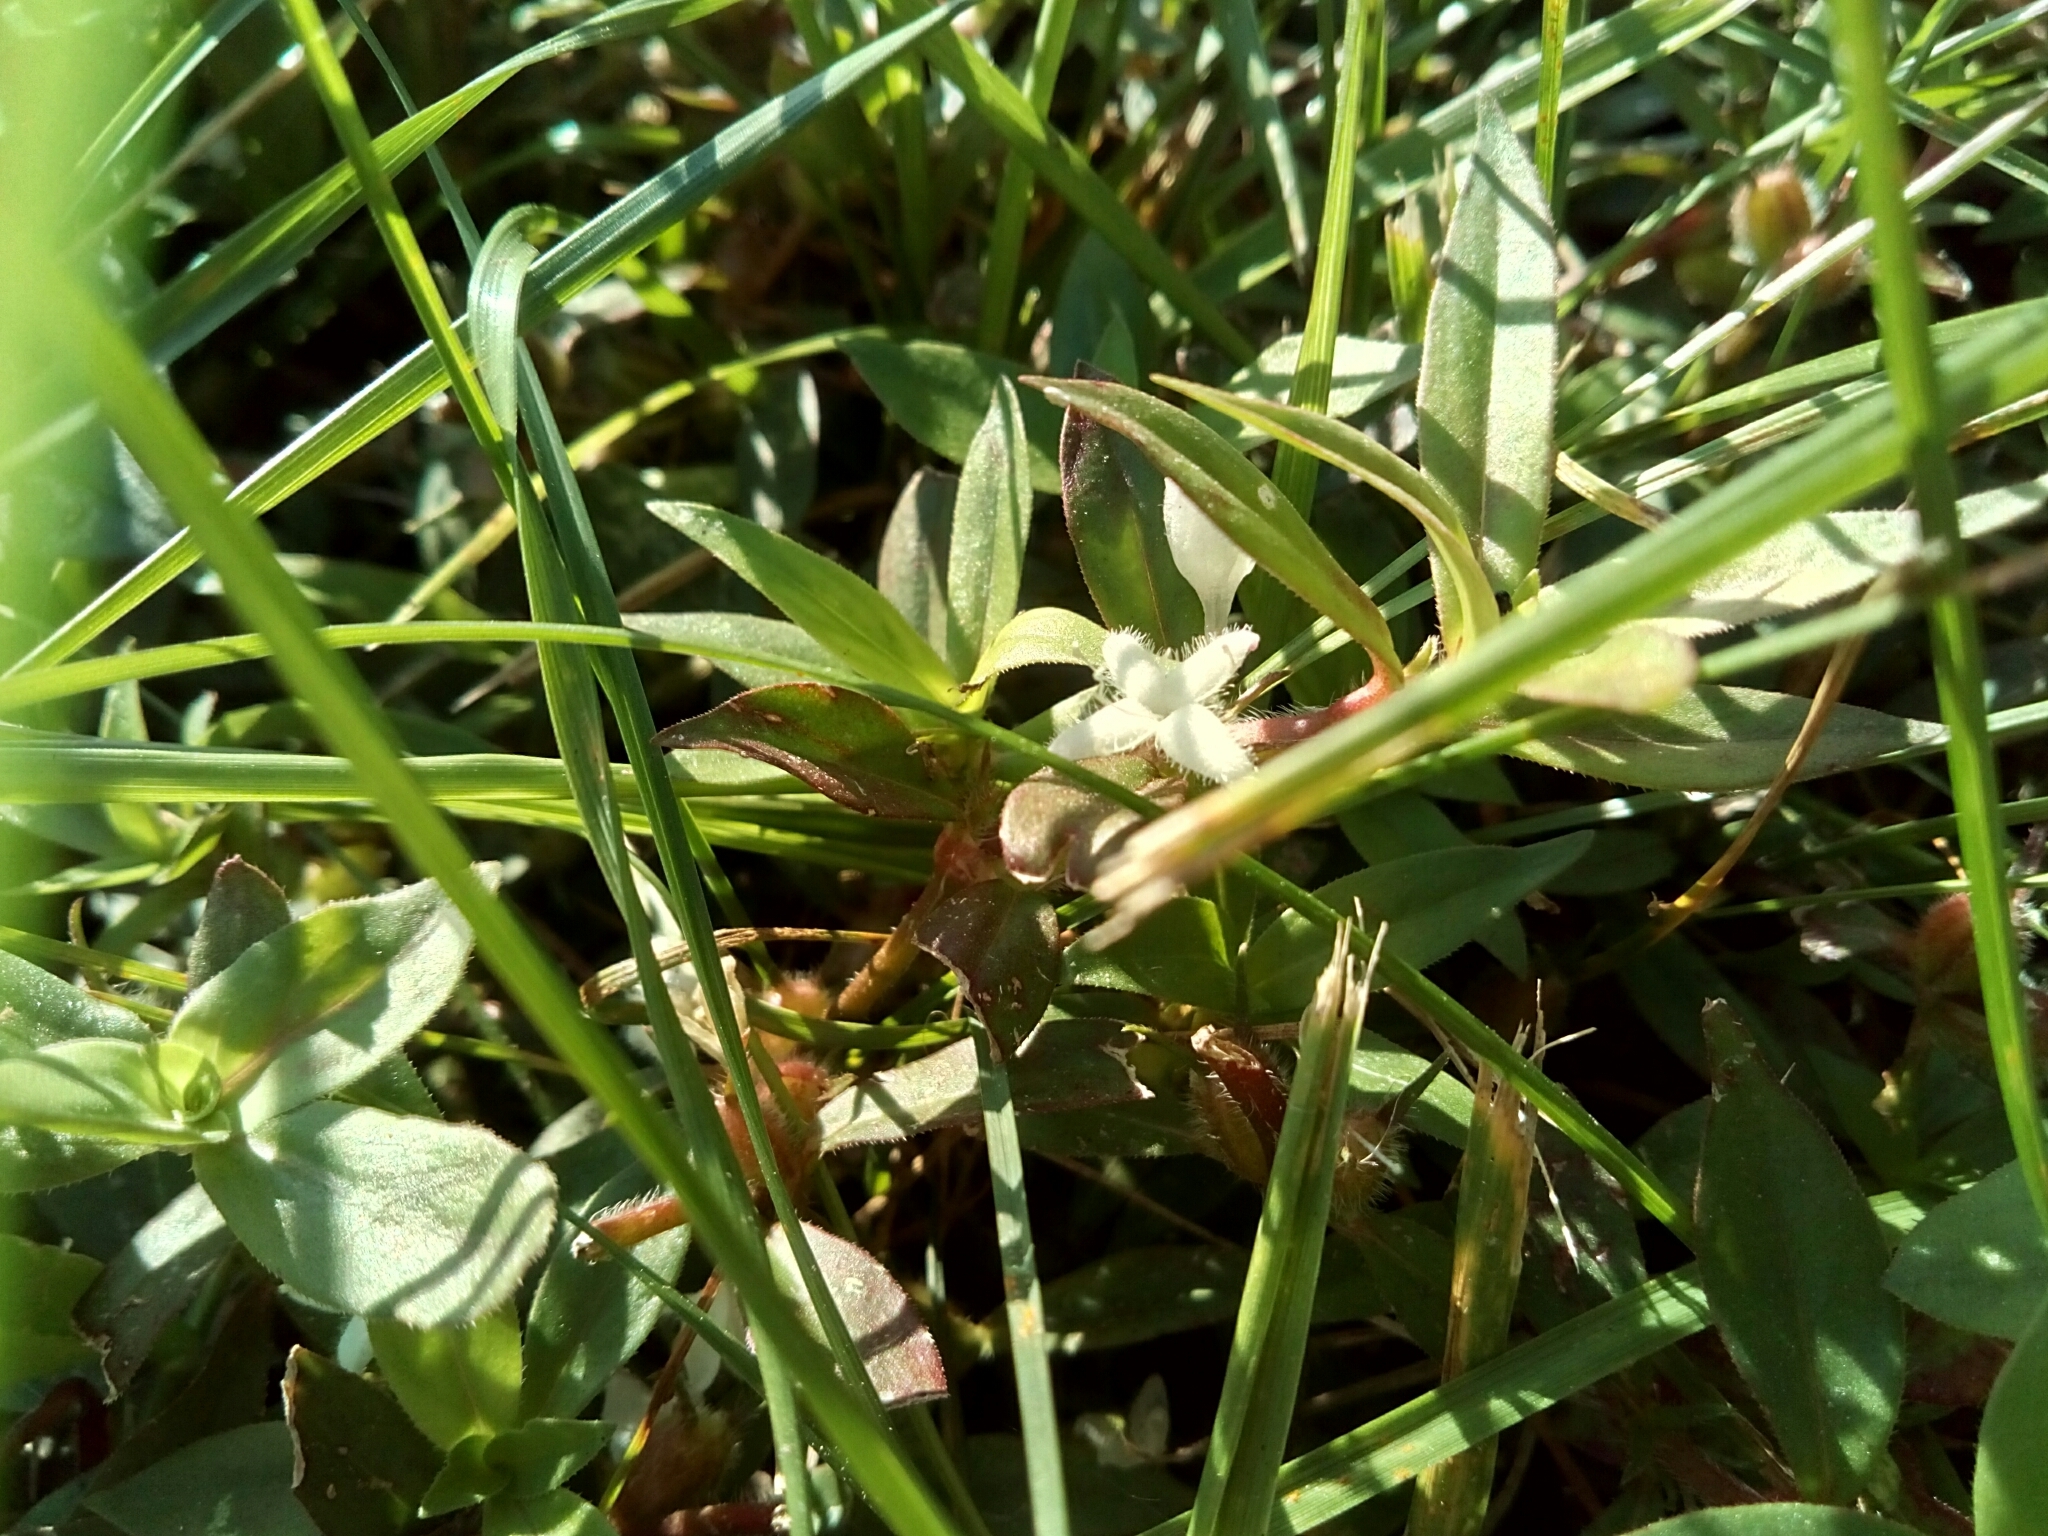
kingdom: Plantae
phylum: Tracheophyta
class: Magnoliopsida
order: Gentianales
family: Rubiaceae
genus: Diodia
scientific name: Diodia virginiana
